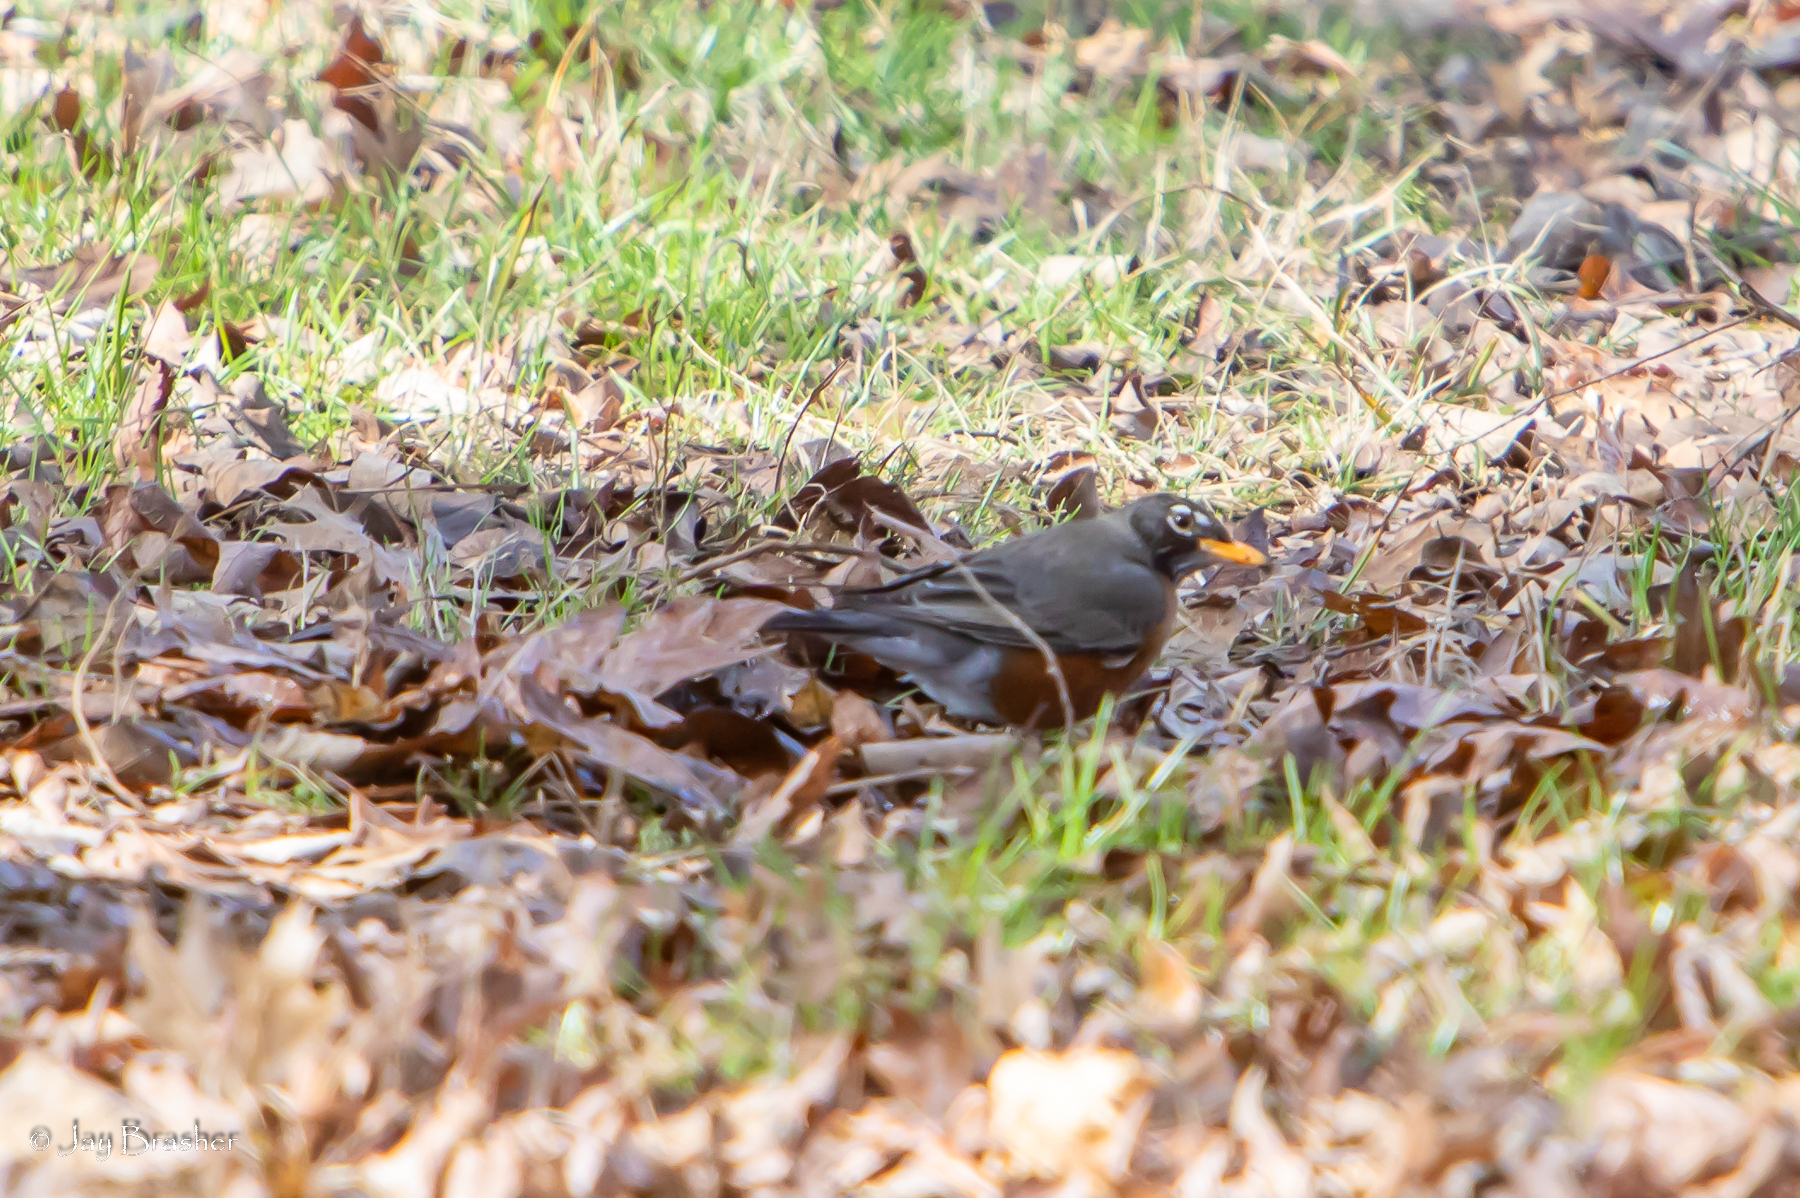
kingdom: Animalia
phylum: Chordata
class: Aves
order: Passeriformes
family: Turdidae
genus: Turdus
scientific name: Turdus migratorius
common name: American robin
